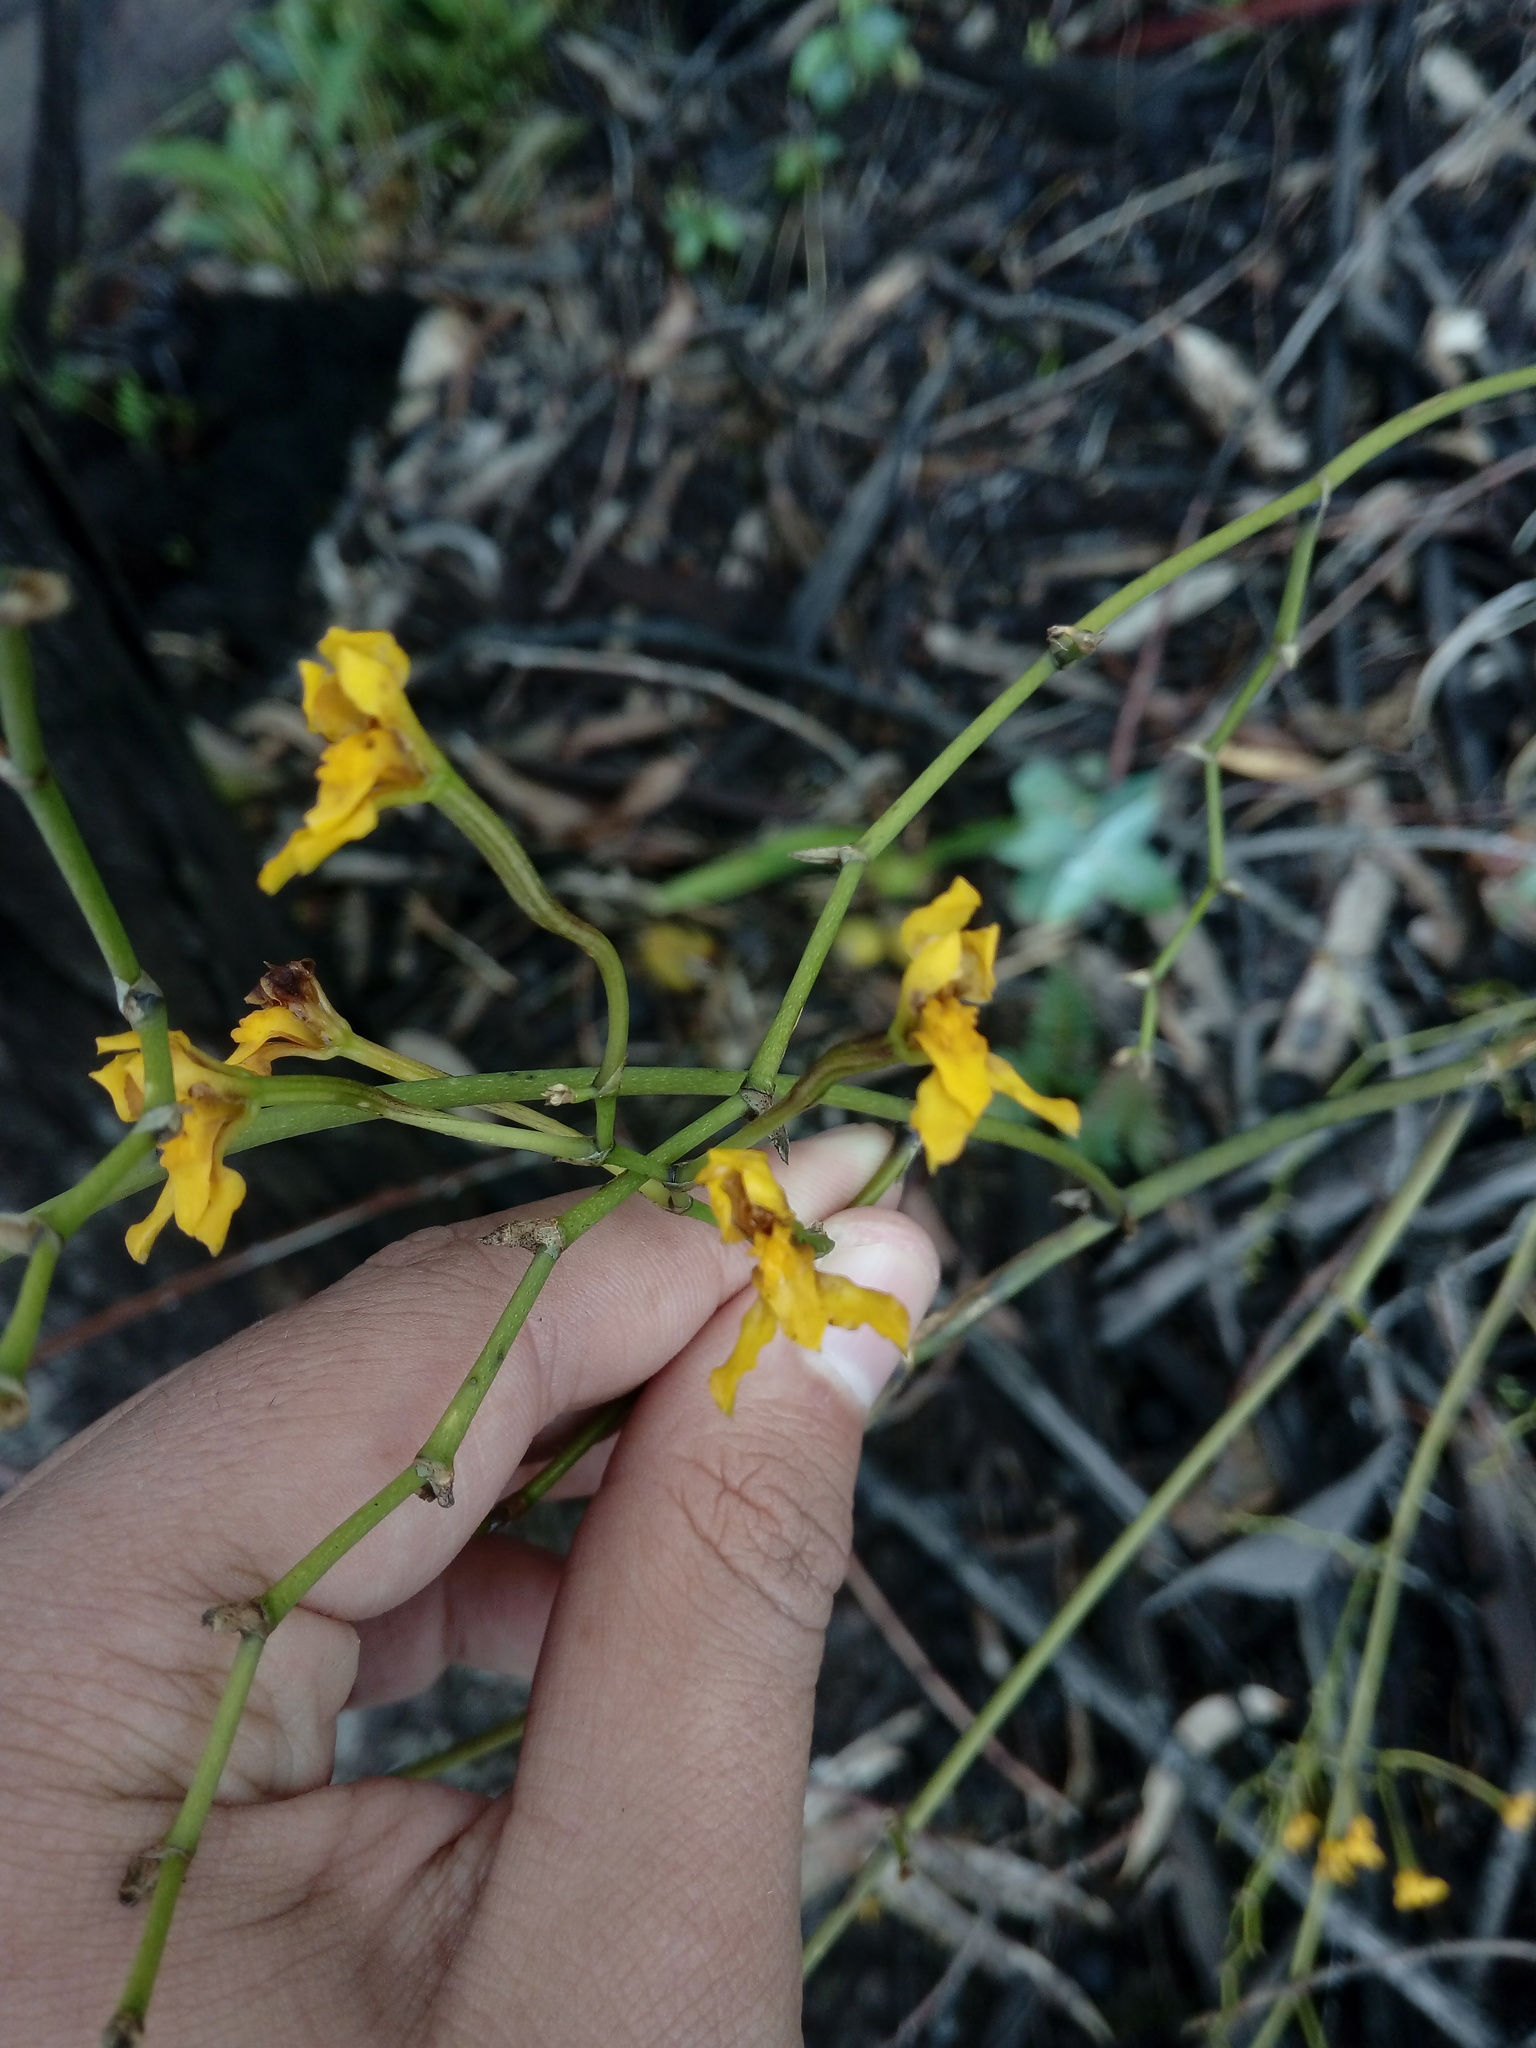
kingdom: Plantae
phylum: Tracheophyta
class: Liliopsida
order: Asparagales
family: Orchidaceae
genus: Cyrtochilum
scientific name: Cyrtochilum densiflorum
